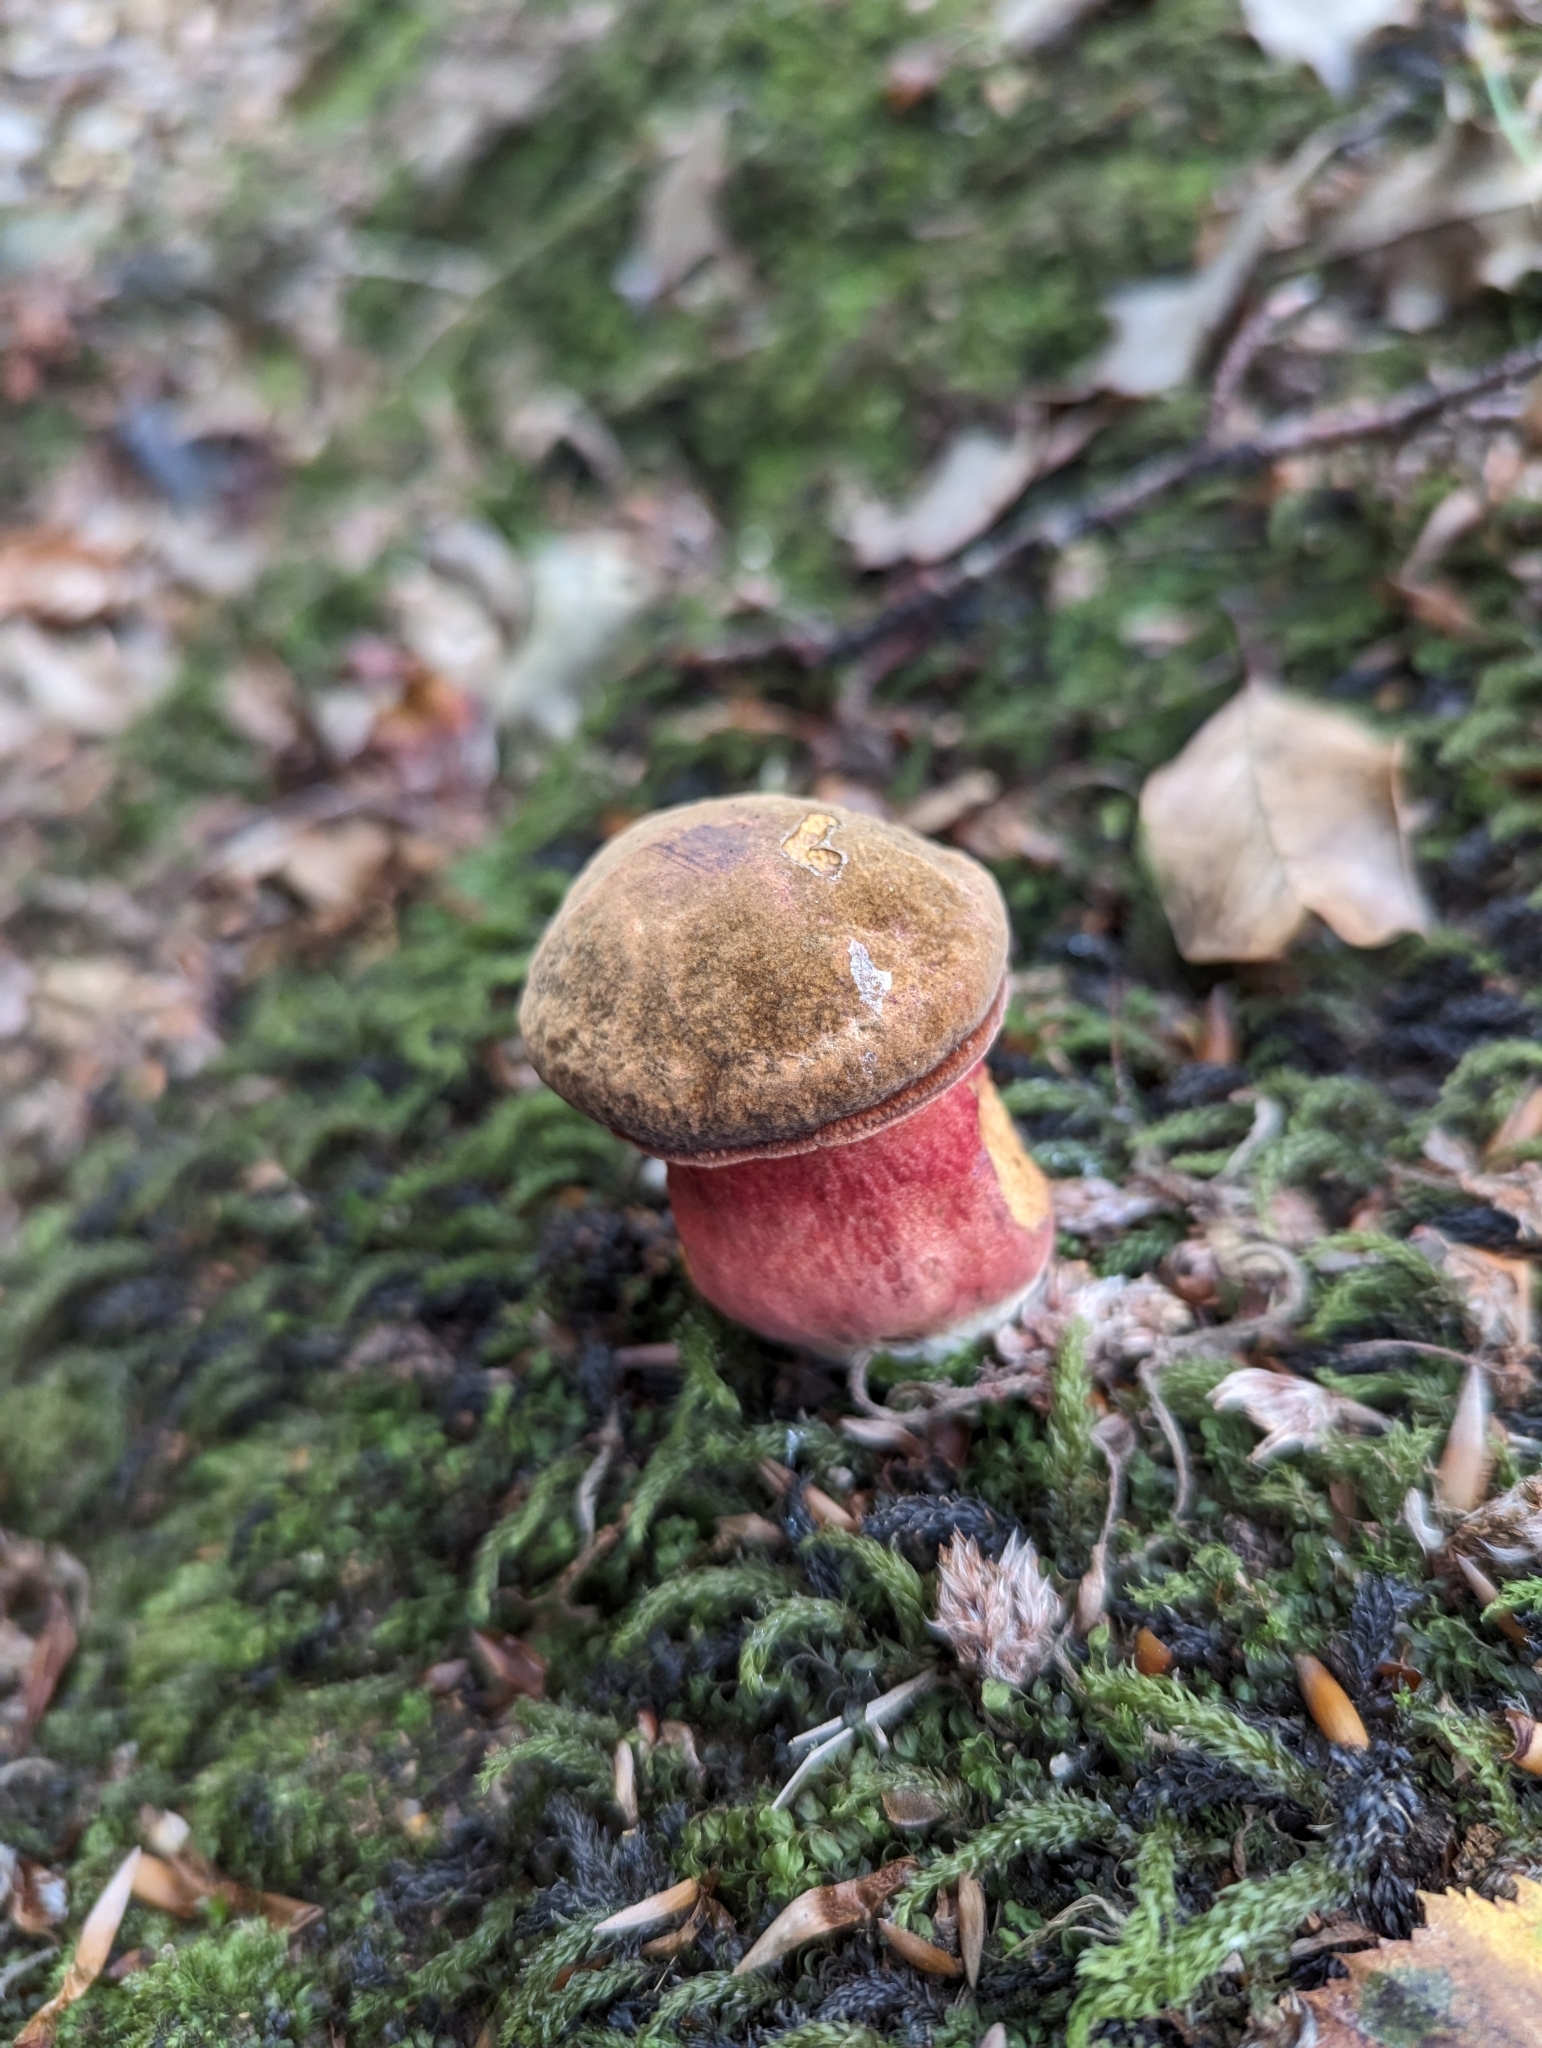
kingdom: Fungi
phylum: Basidiomycota
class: Agaricomycetes
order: Boletales
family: Boletaceae
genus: Neoboletus
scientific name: Neoboletus luridiformis
